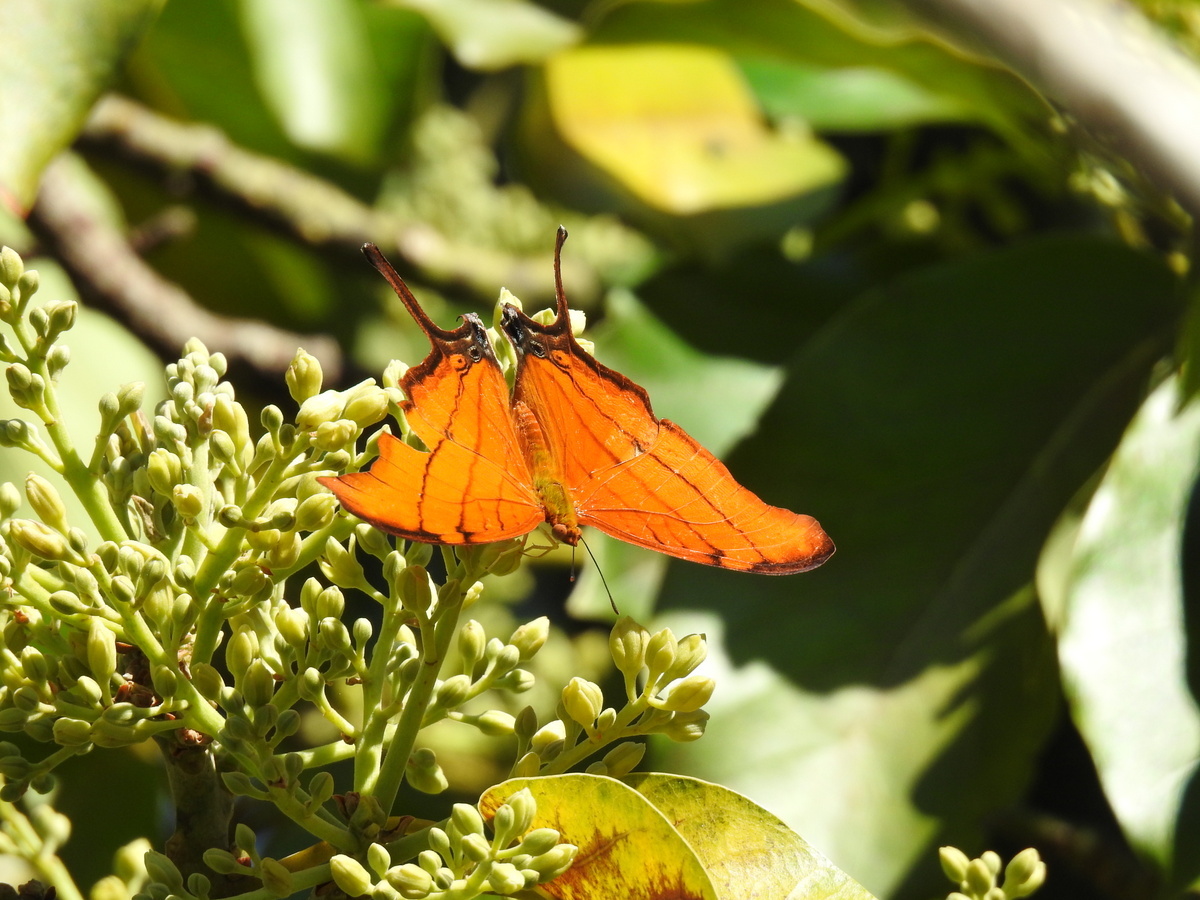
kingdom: Animalia
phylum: Arthropoda
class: Insecta
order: Lepidoptera
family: Nymphalidae
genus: Marpesia
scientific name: Marpesia petreus
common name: Red dagger wing
